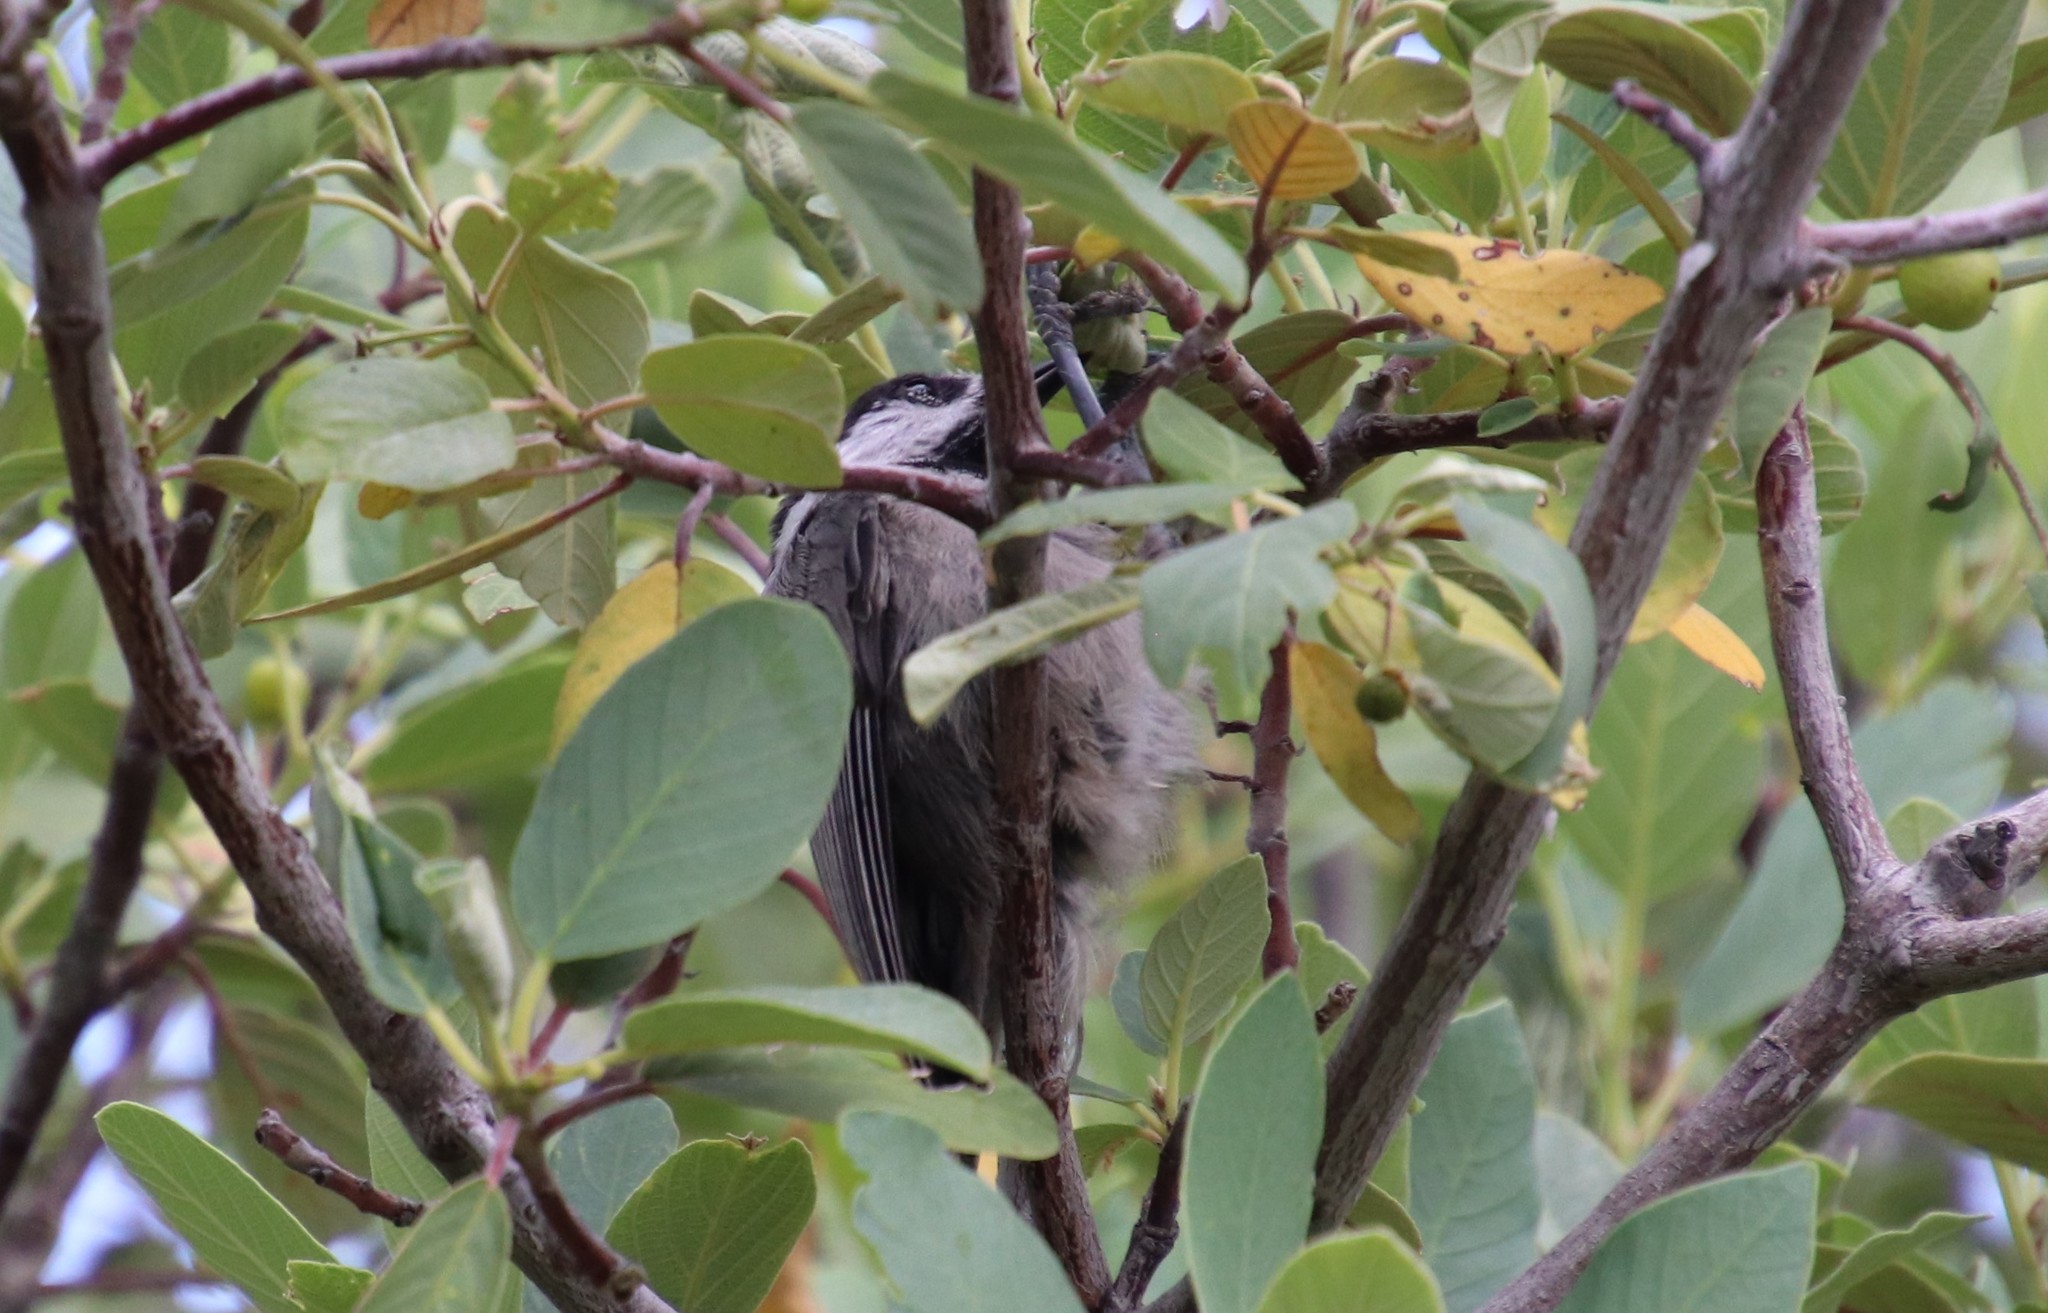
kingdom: Animalia
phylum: Chordata
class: Aves
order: Passeriformes
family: Paridae
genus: Poecile
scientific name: Poecile gambeli
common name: Mountain chickadee
